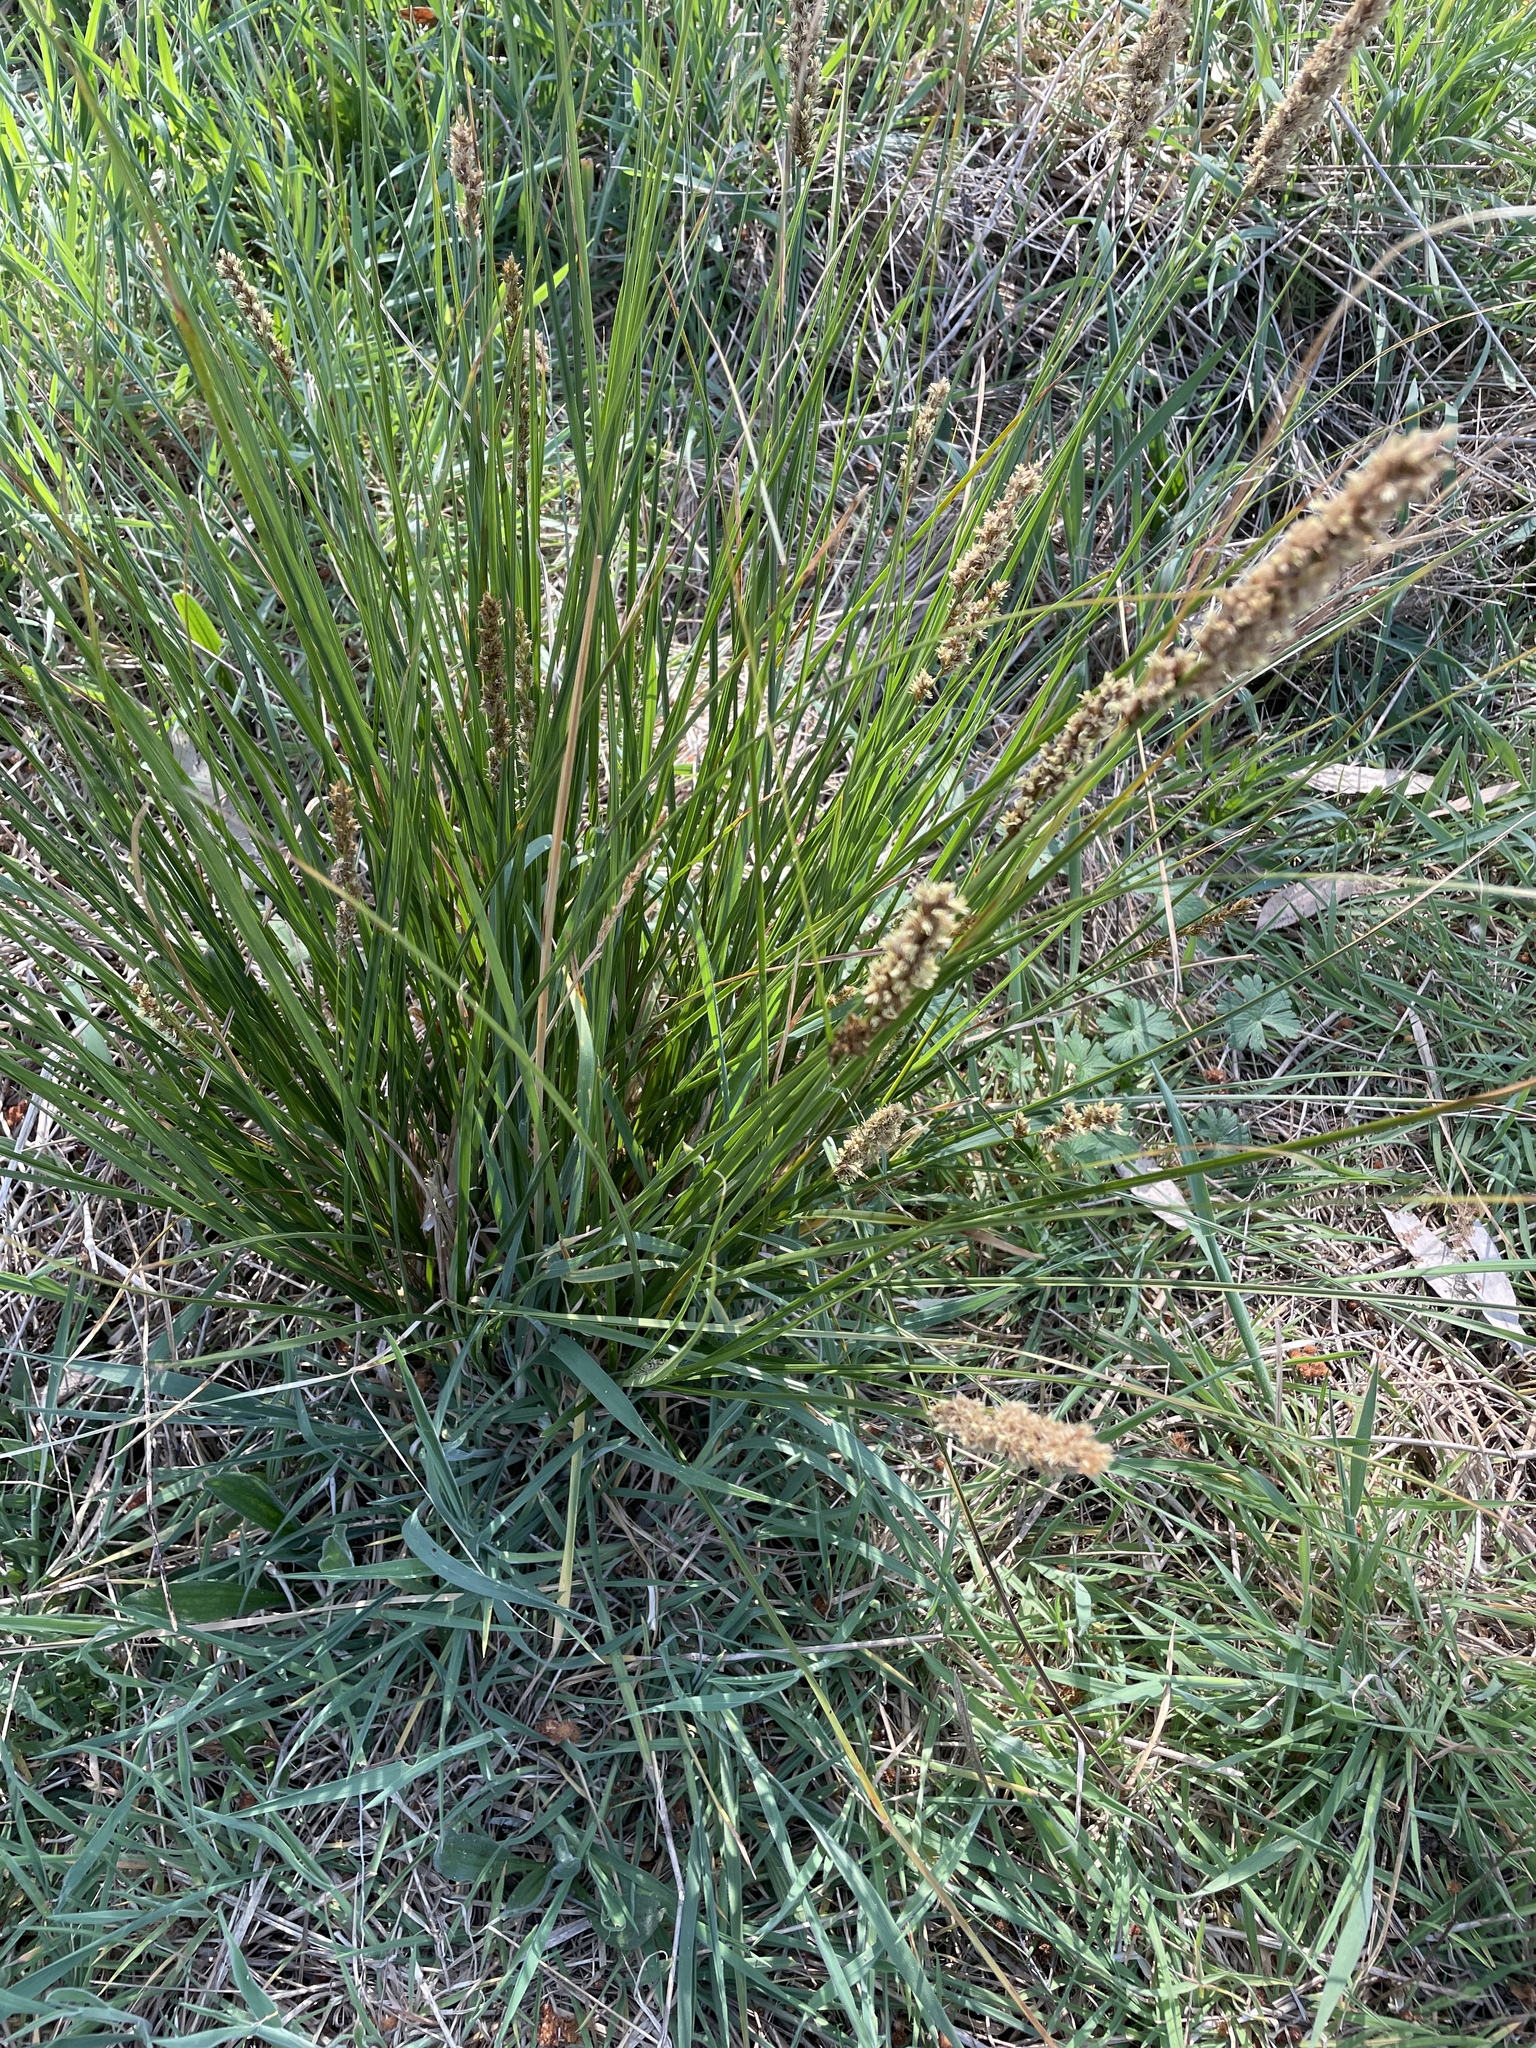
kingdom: Plantae
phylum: Tracheophyta
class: Liliopsida
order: Poales
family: Cyperaceae
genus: Carex
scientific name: Carex appressa
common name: Tussock sedge
